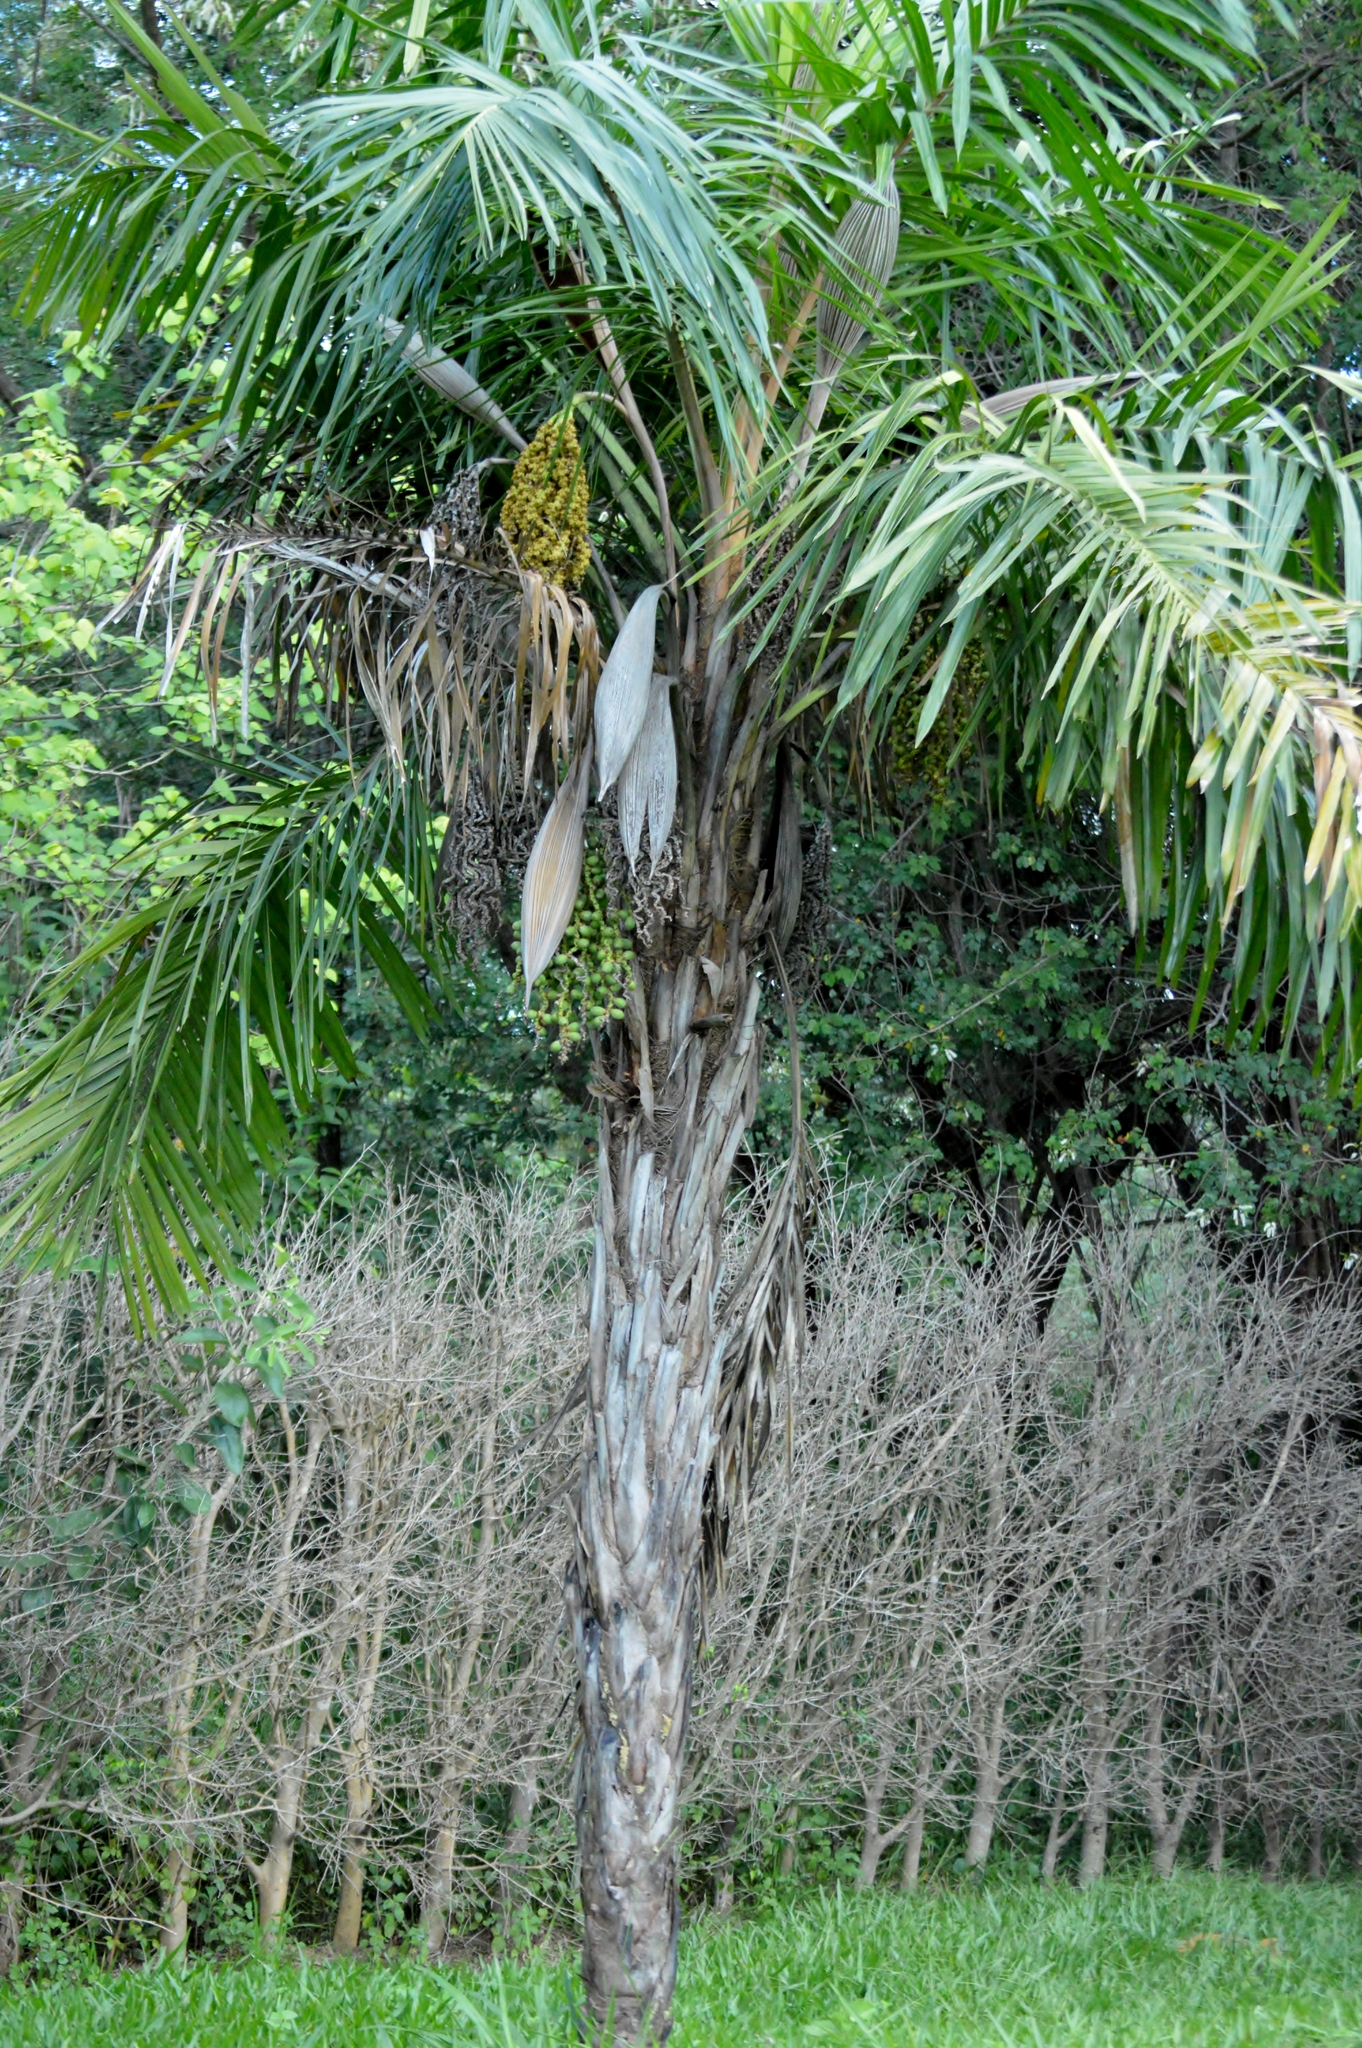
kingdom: Plantae
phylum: Tracheophyta
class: Liliopsida
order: Arecales
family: Arecaceae
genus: Syagrus
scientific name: Syagrus comosa
